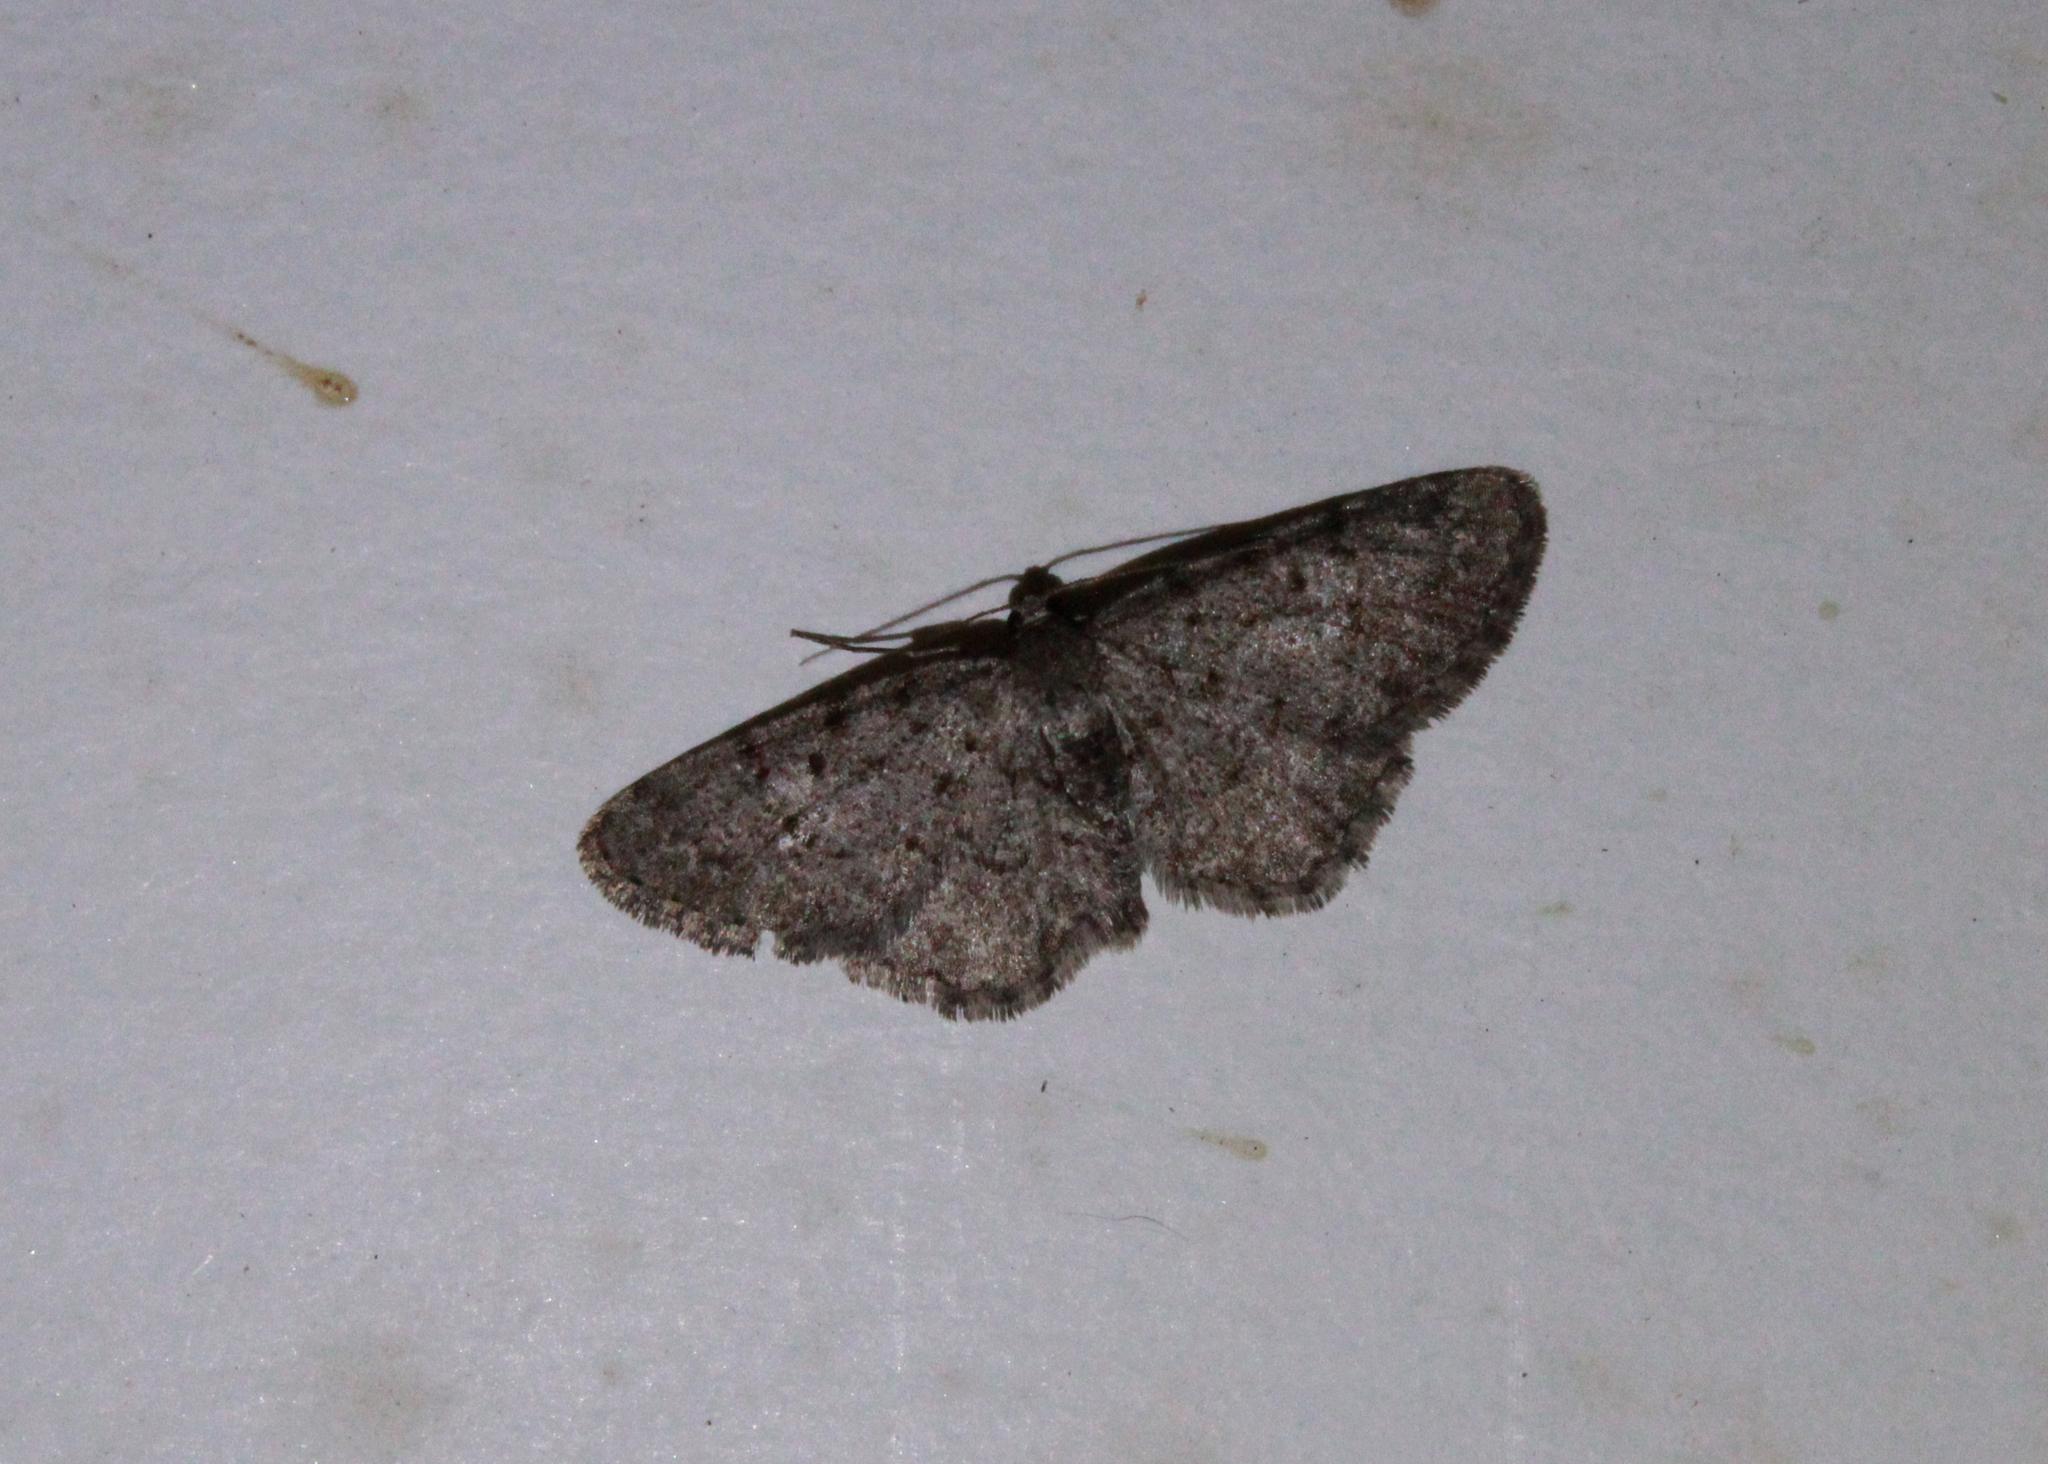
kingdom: Animalia
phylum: Arthropoda
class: Insecta
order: Lepidoptera
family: Geometridae
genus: Aethalura
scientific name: Aethalura intertexta
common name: Four-barred gray
